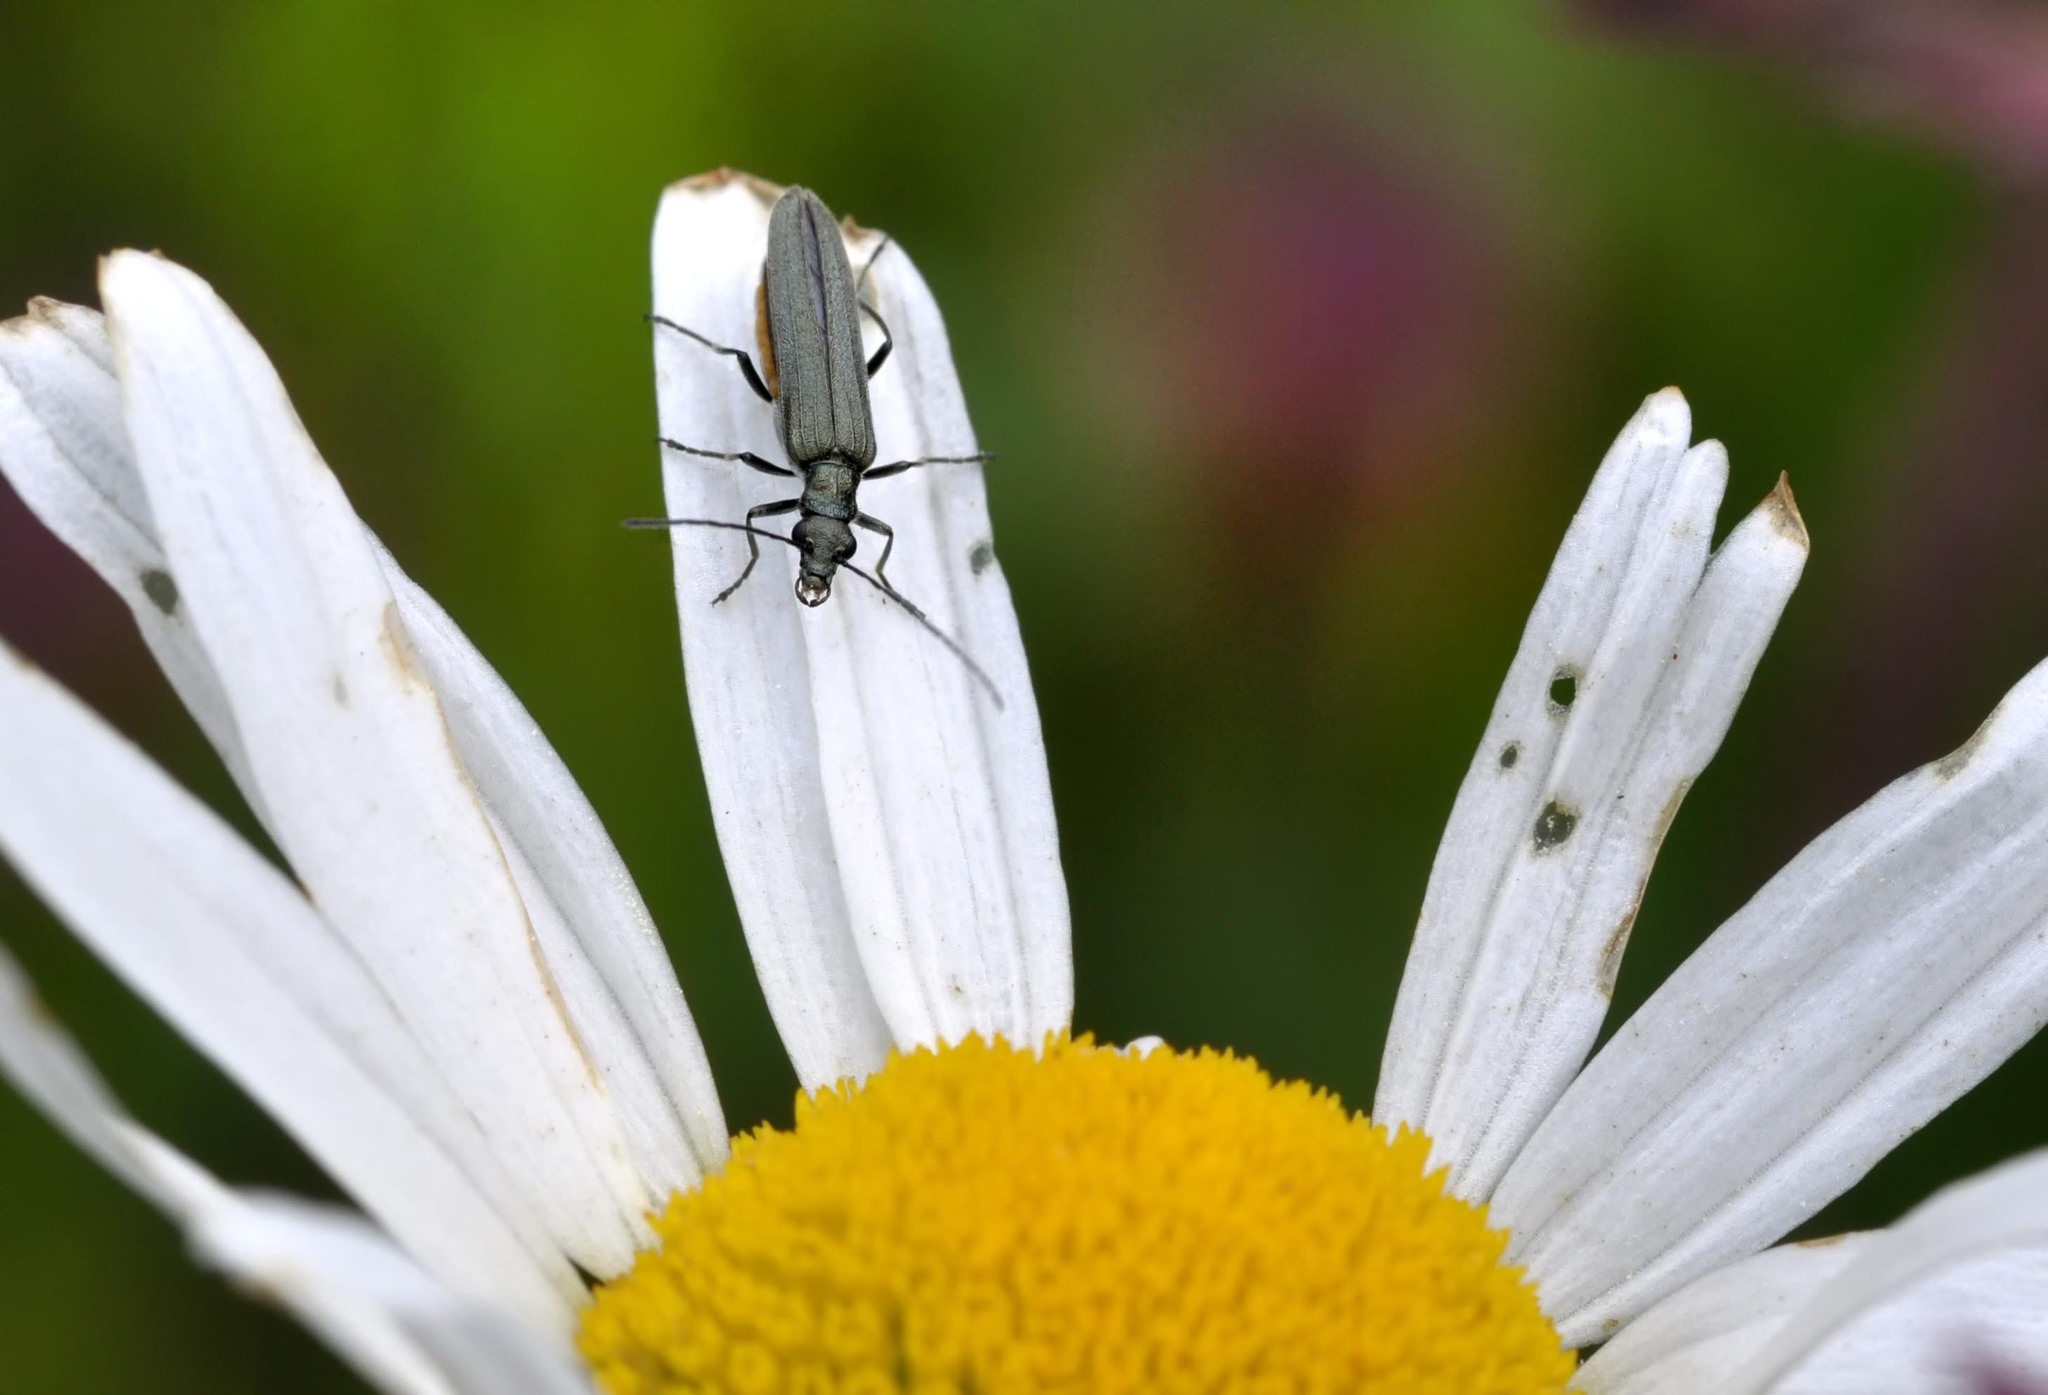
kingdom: Animalia
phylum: Arthropoda
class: Insecta
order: Coleoptera
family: Oedemeridae
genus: Oedemera
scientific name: Oedemera lurida
